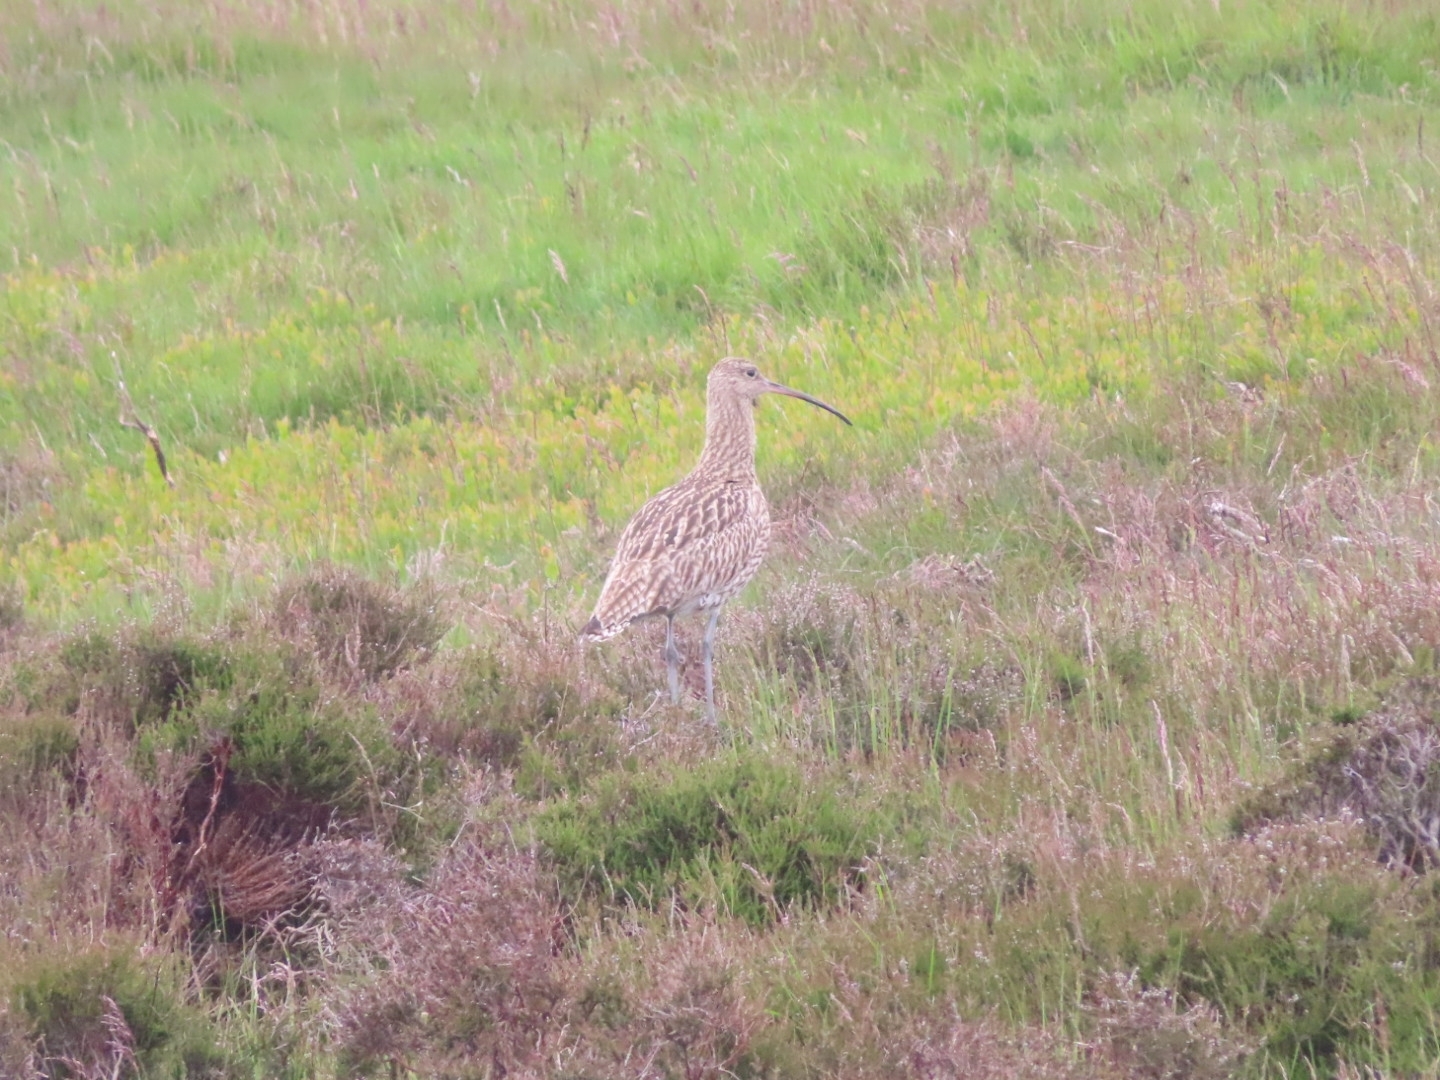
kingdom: Animalia
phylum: Chordata
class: Aves
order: Charadriiformes
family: Scolopacidae
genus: Numenius
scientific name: Numenius arquata
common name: Eurasian curlew
